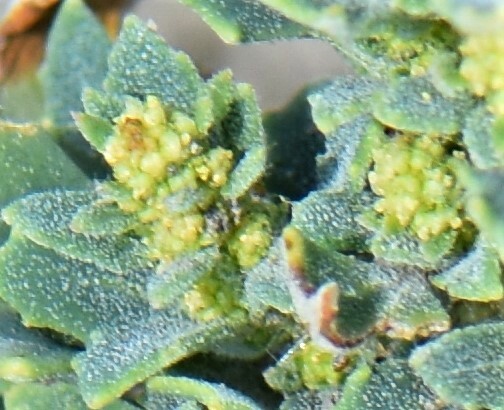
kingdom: Plantae
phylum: Tracheophyta
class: Magnoliopsida
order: Caryophyllales
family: Amaranthaceae
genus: Oxybasis
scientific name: Oxybasis glauca
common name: Glaucous goosefoot
